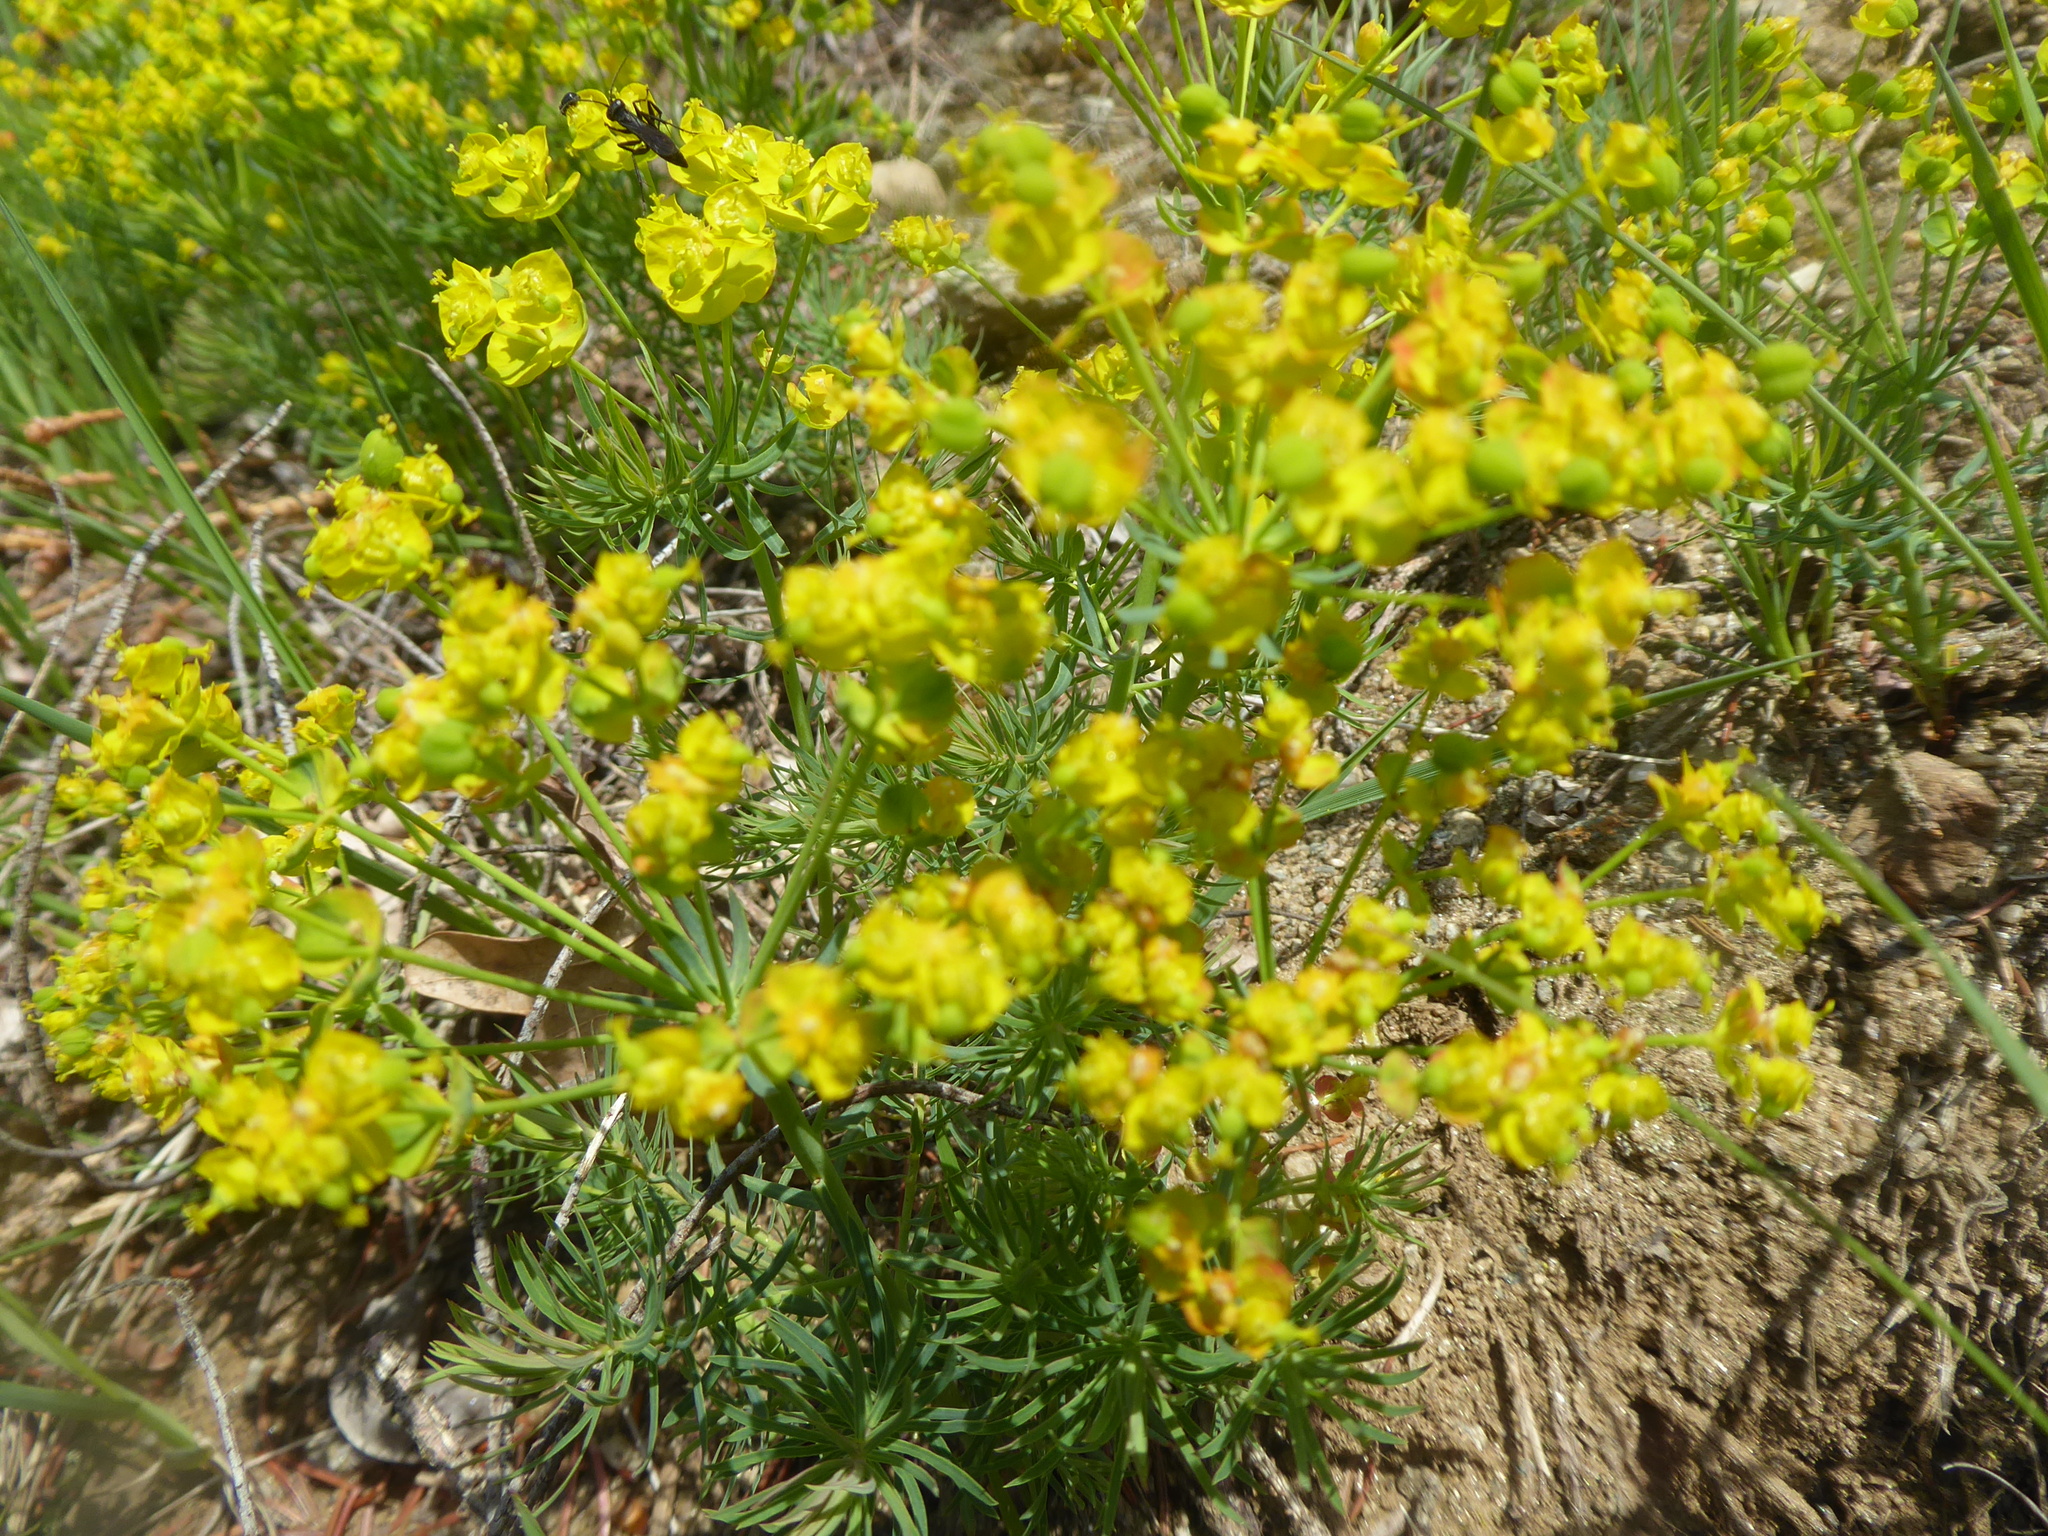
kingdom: Plantae
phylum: Tracheophyta
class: Magnoliopsida
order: Malpighiales
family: Euphorbiaceae
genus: Euphorbia
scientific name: Euphorbia cyparissias
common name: Cypress spurge
